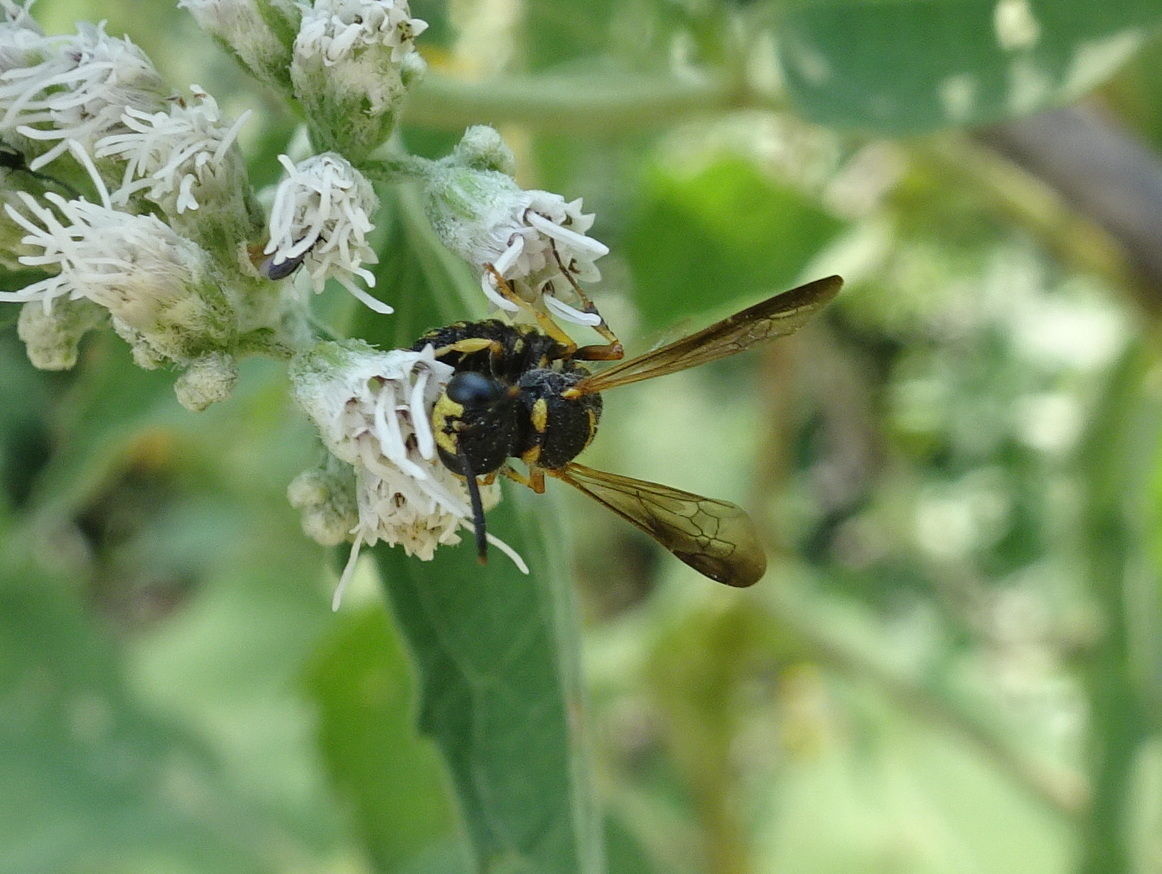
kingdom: Animalia
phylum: Arthropoda
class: Insecta
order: Hymenoptera
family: Crabronidae
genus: Cerceris
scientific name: Cerceris insolita
